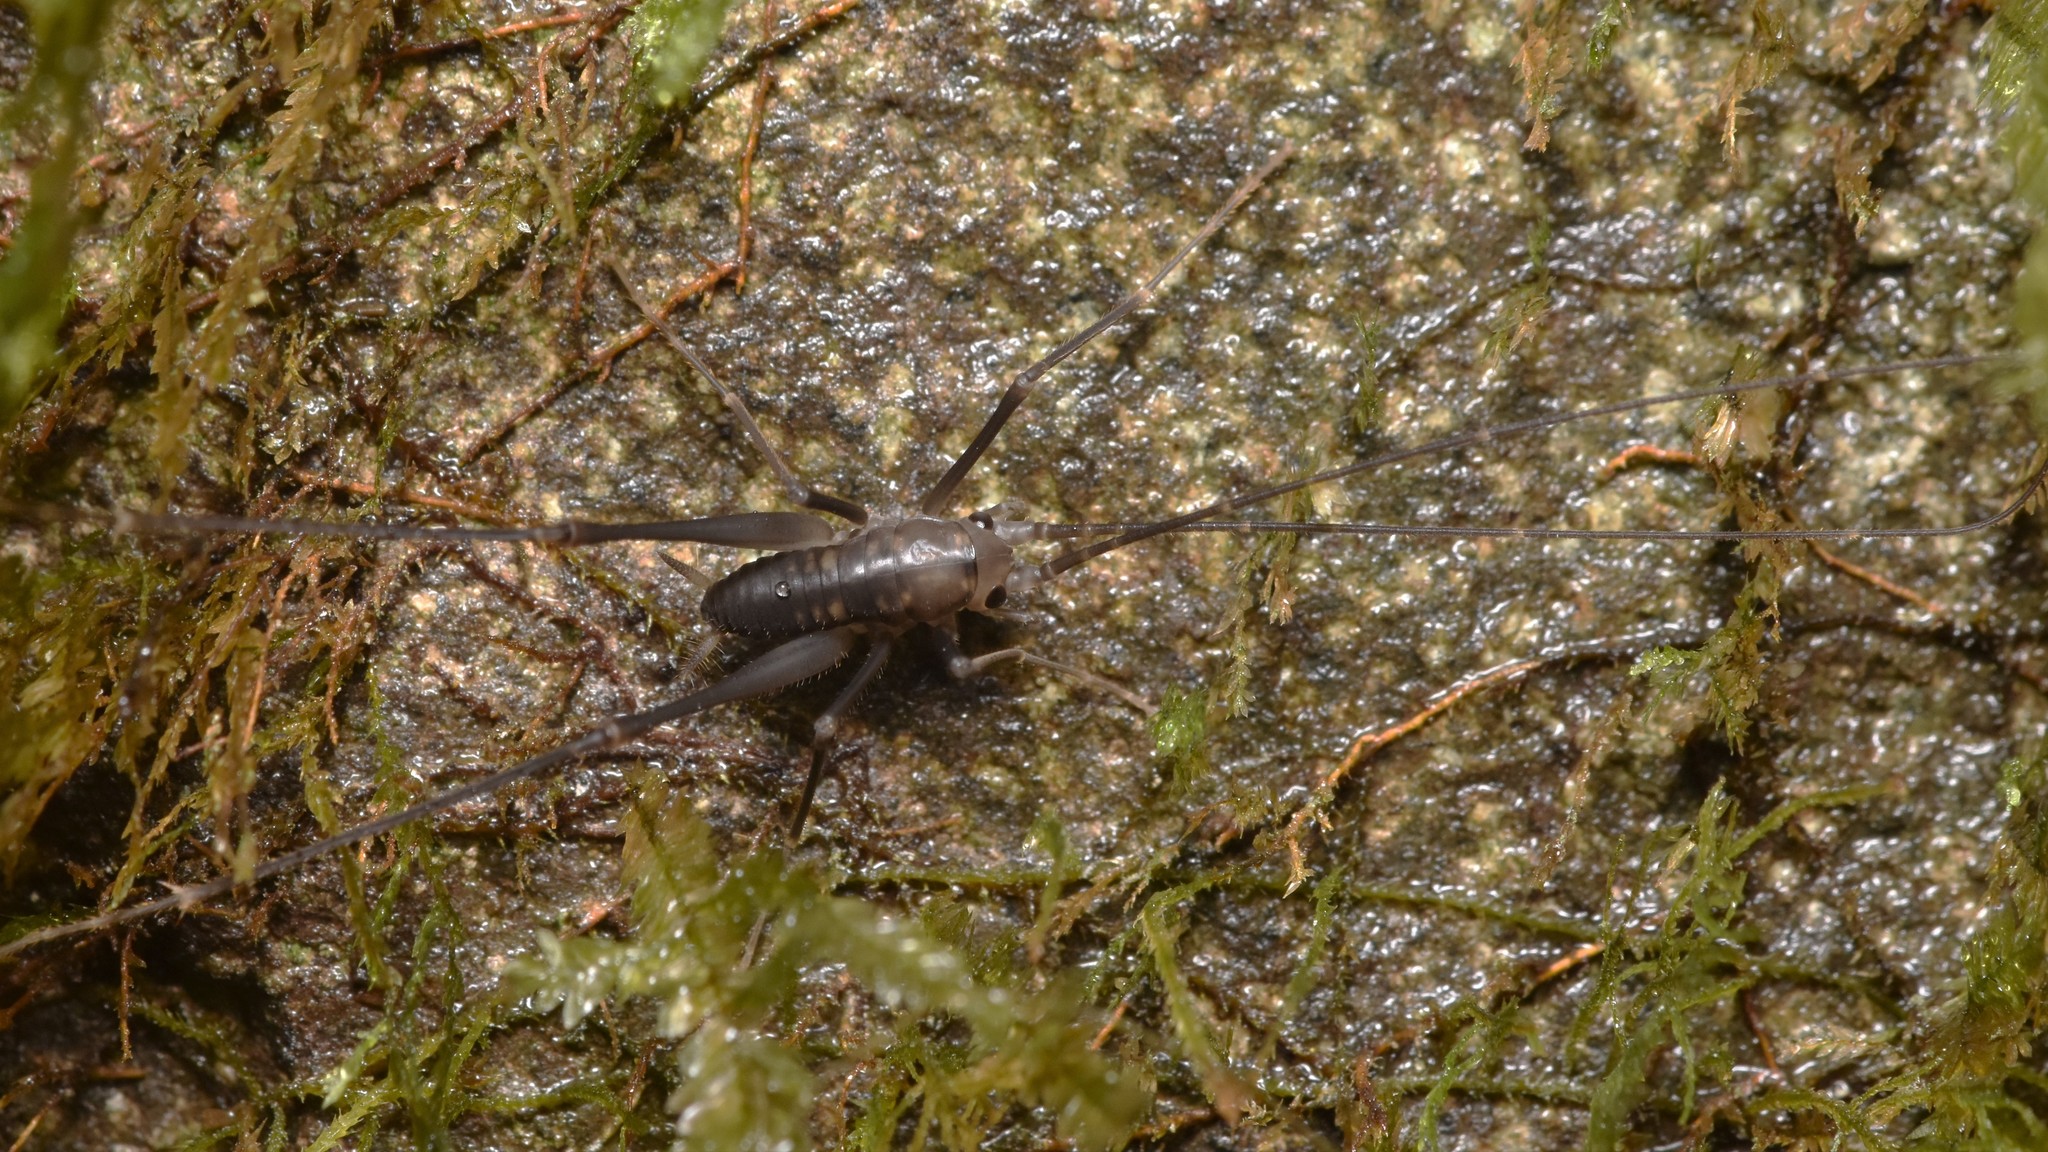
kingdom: Animalia
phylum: Arthropoda
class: Insecta
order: Orthoptera
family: Rhaphidophoridae
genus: Tropidischia
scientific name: Tropidischia xanthostoma
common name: Square-legged camel cricket
